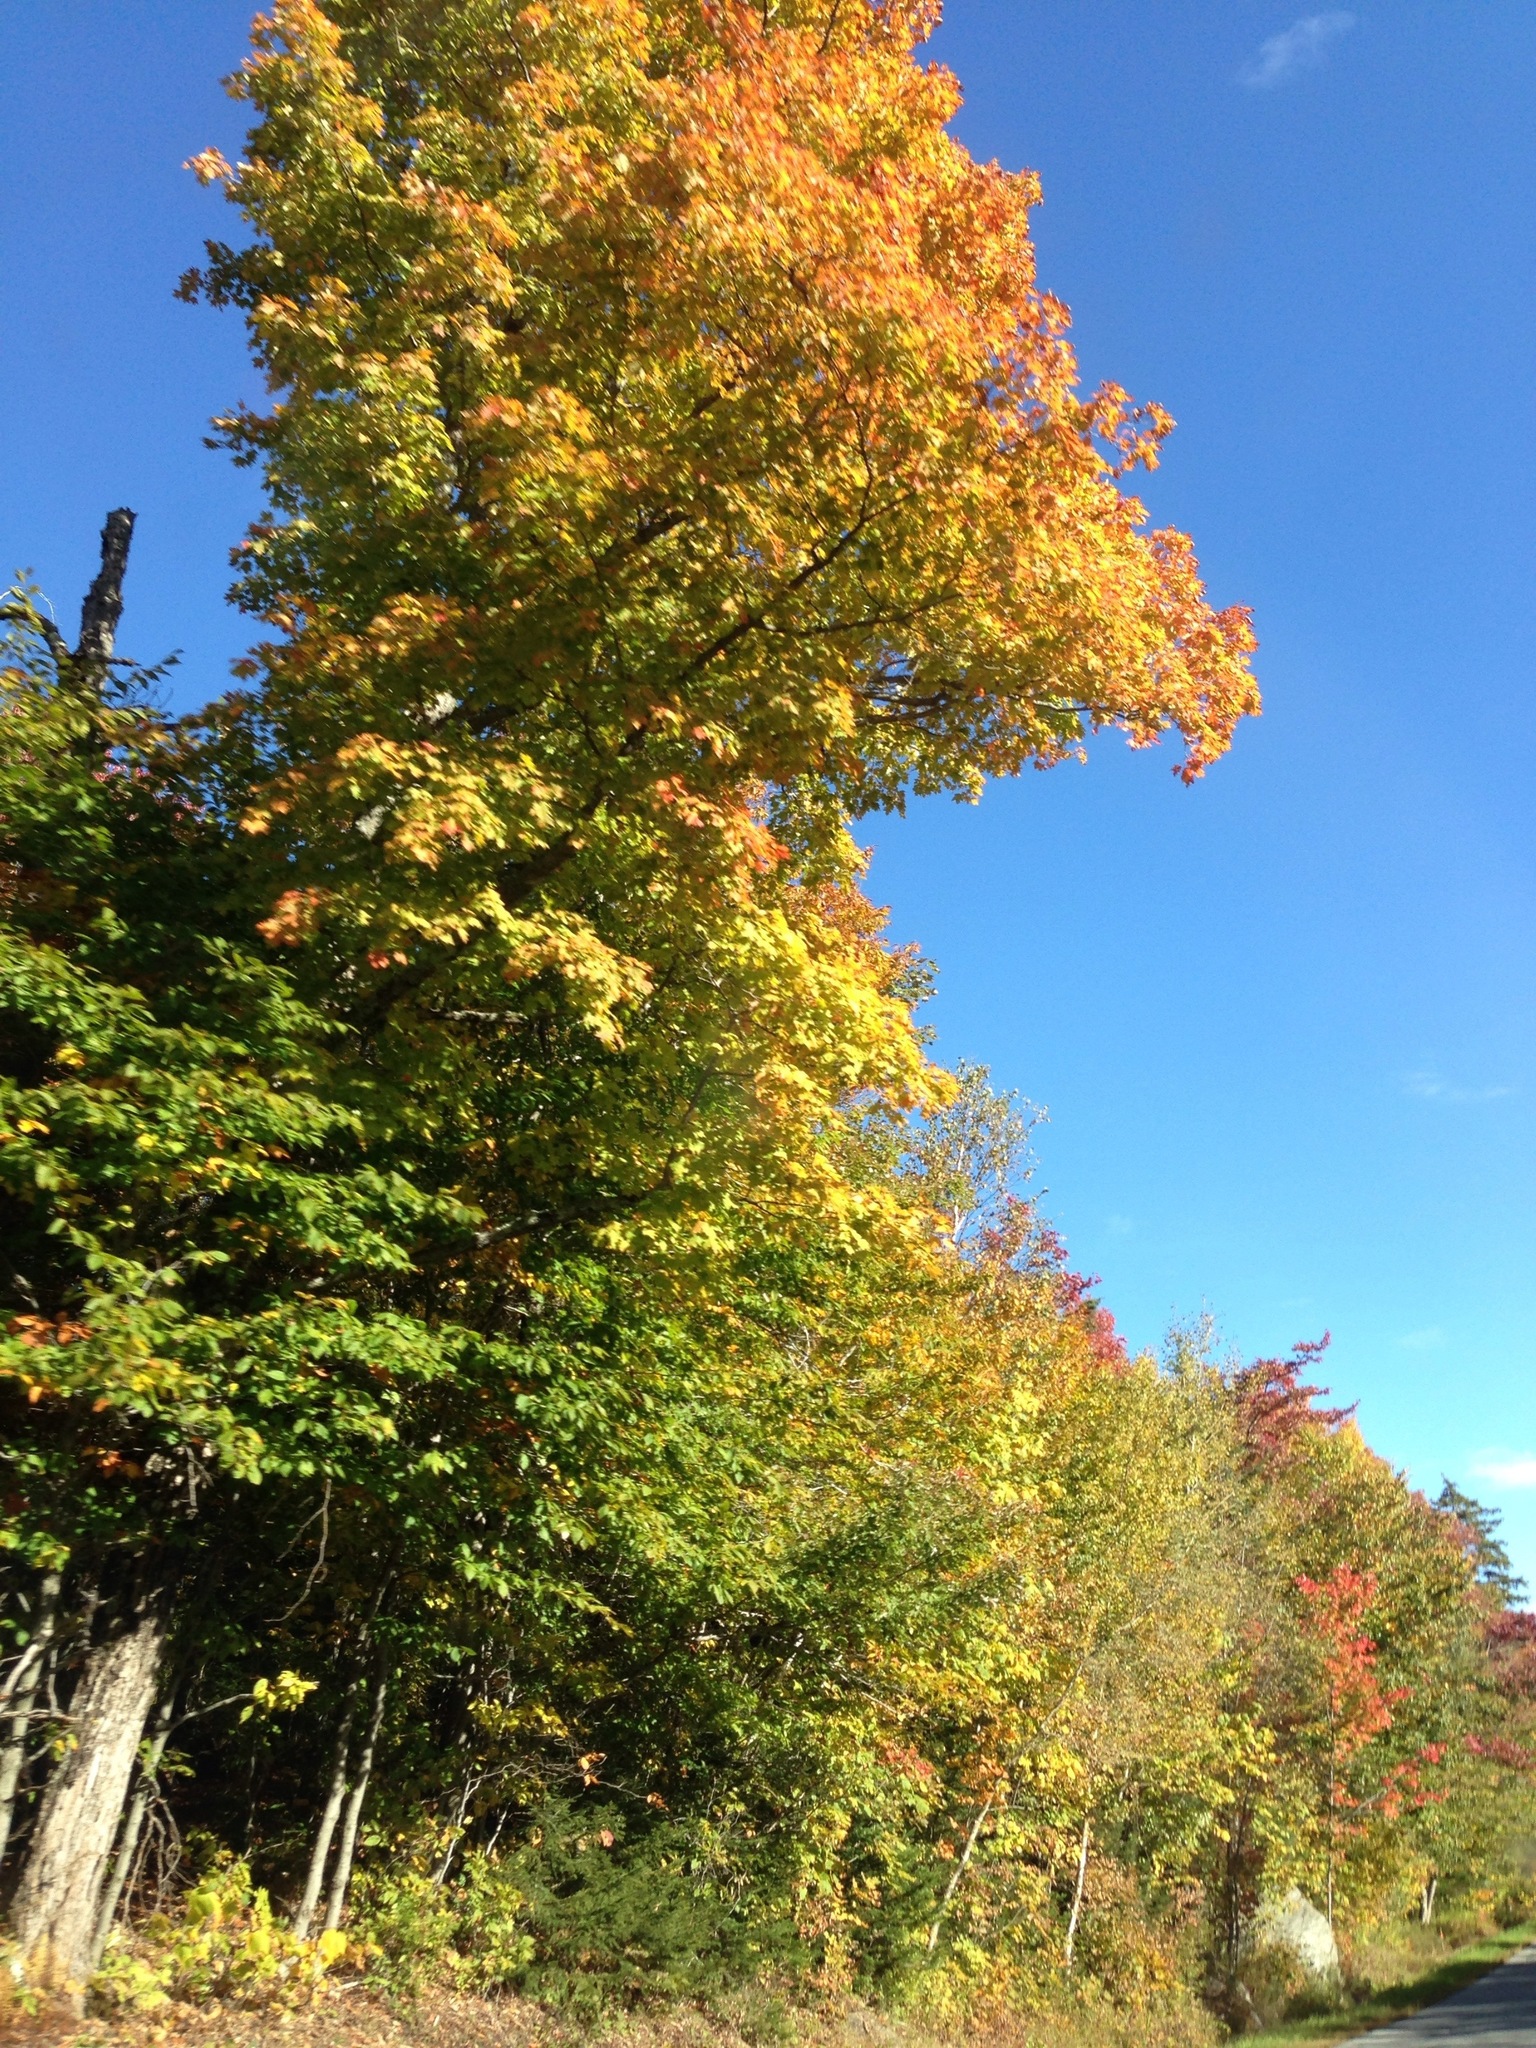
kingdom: Plantae
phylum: Tracheophyta
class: Magnoliopsida
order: Sapindales
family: Sapindaceae
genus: Acer
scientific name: Acer saccharum
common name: Sugar maple
